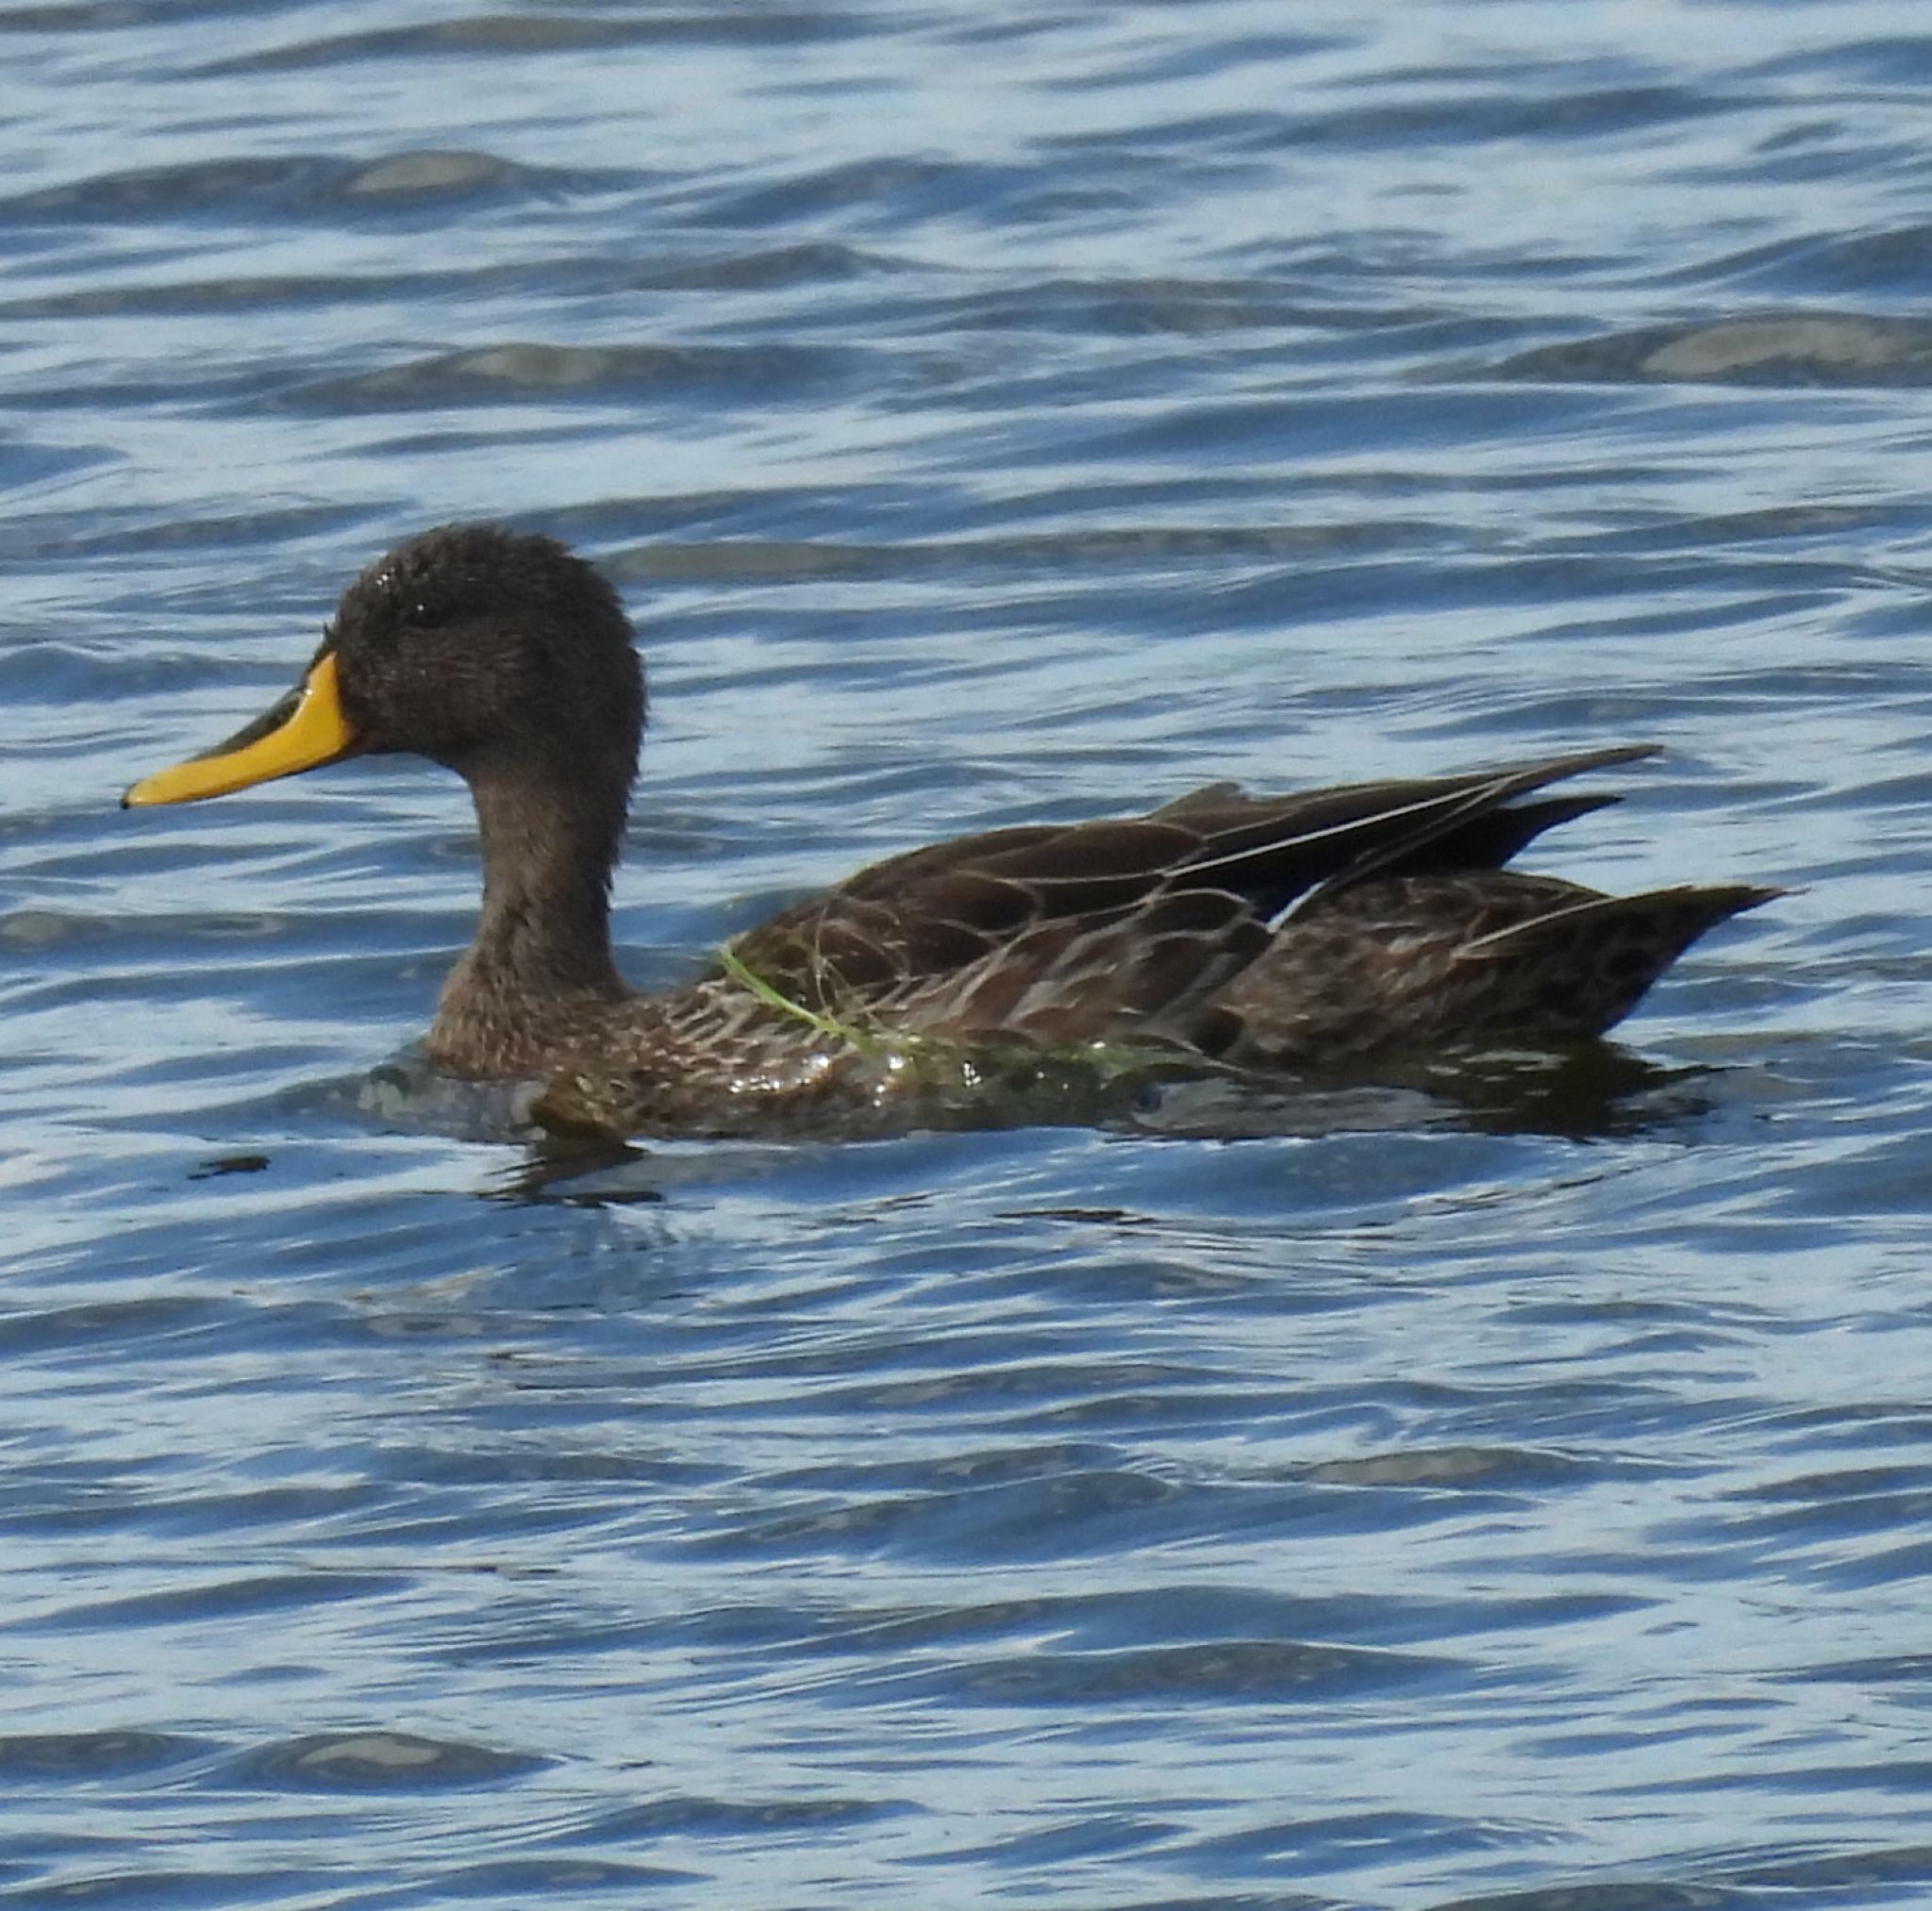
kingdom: Animalia
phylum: Chordata
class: Aves
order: Anseriformes
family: Anatidae
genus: Anas
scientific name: Anas undulata
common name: Yellow-billed duck
